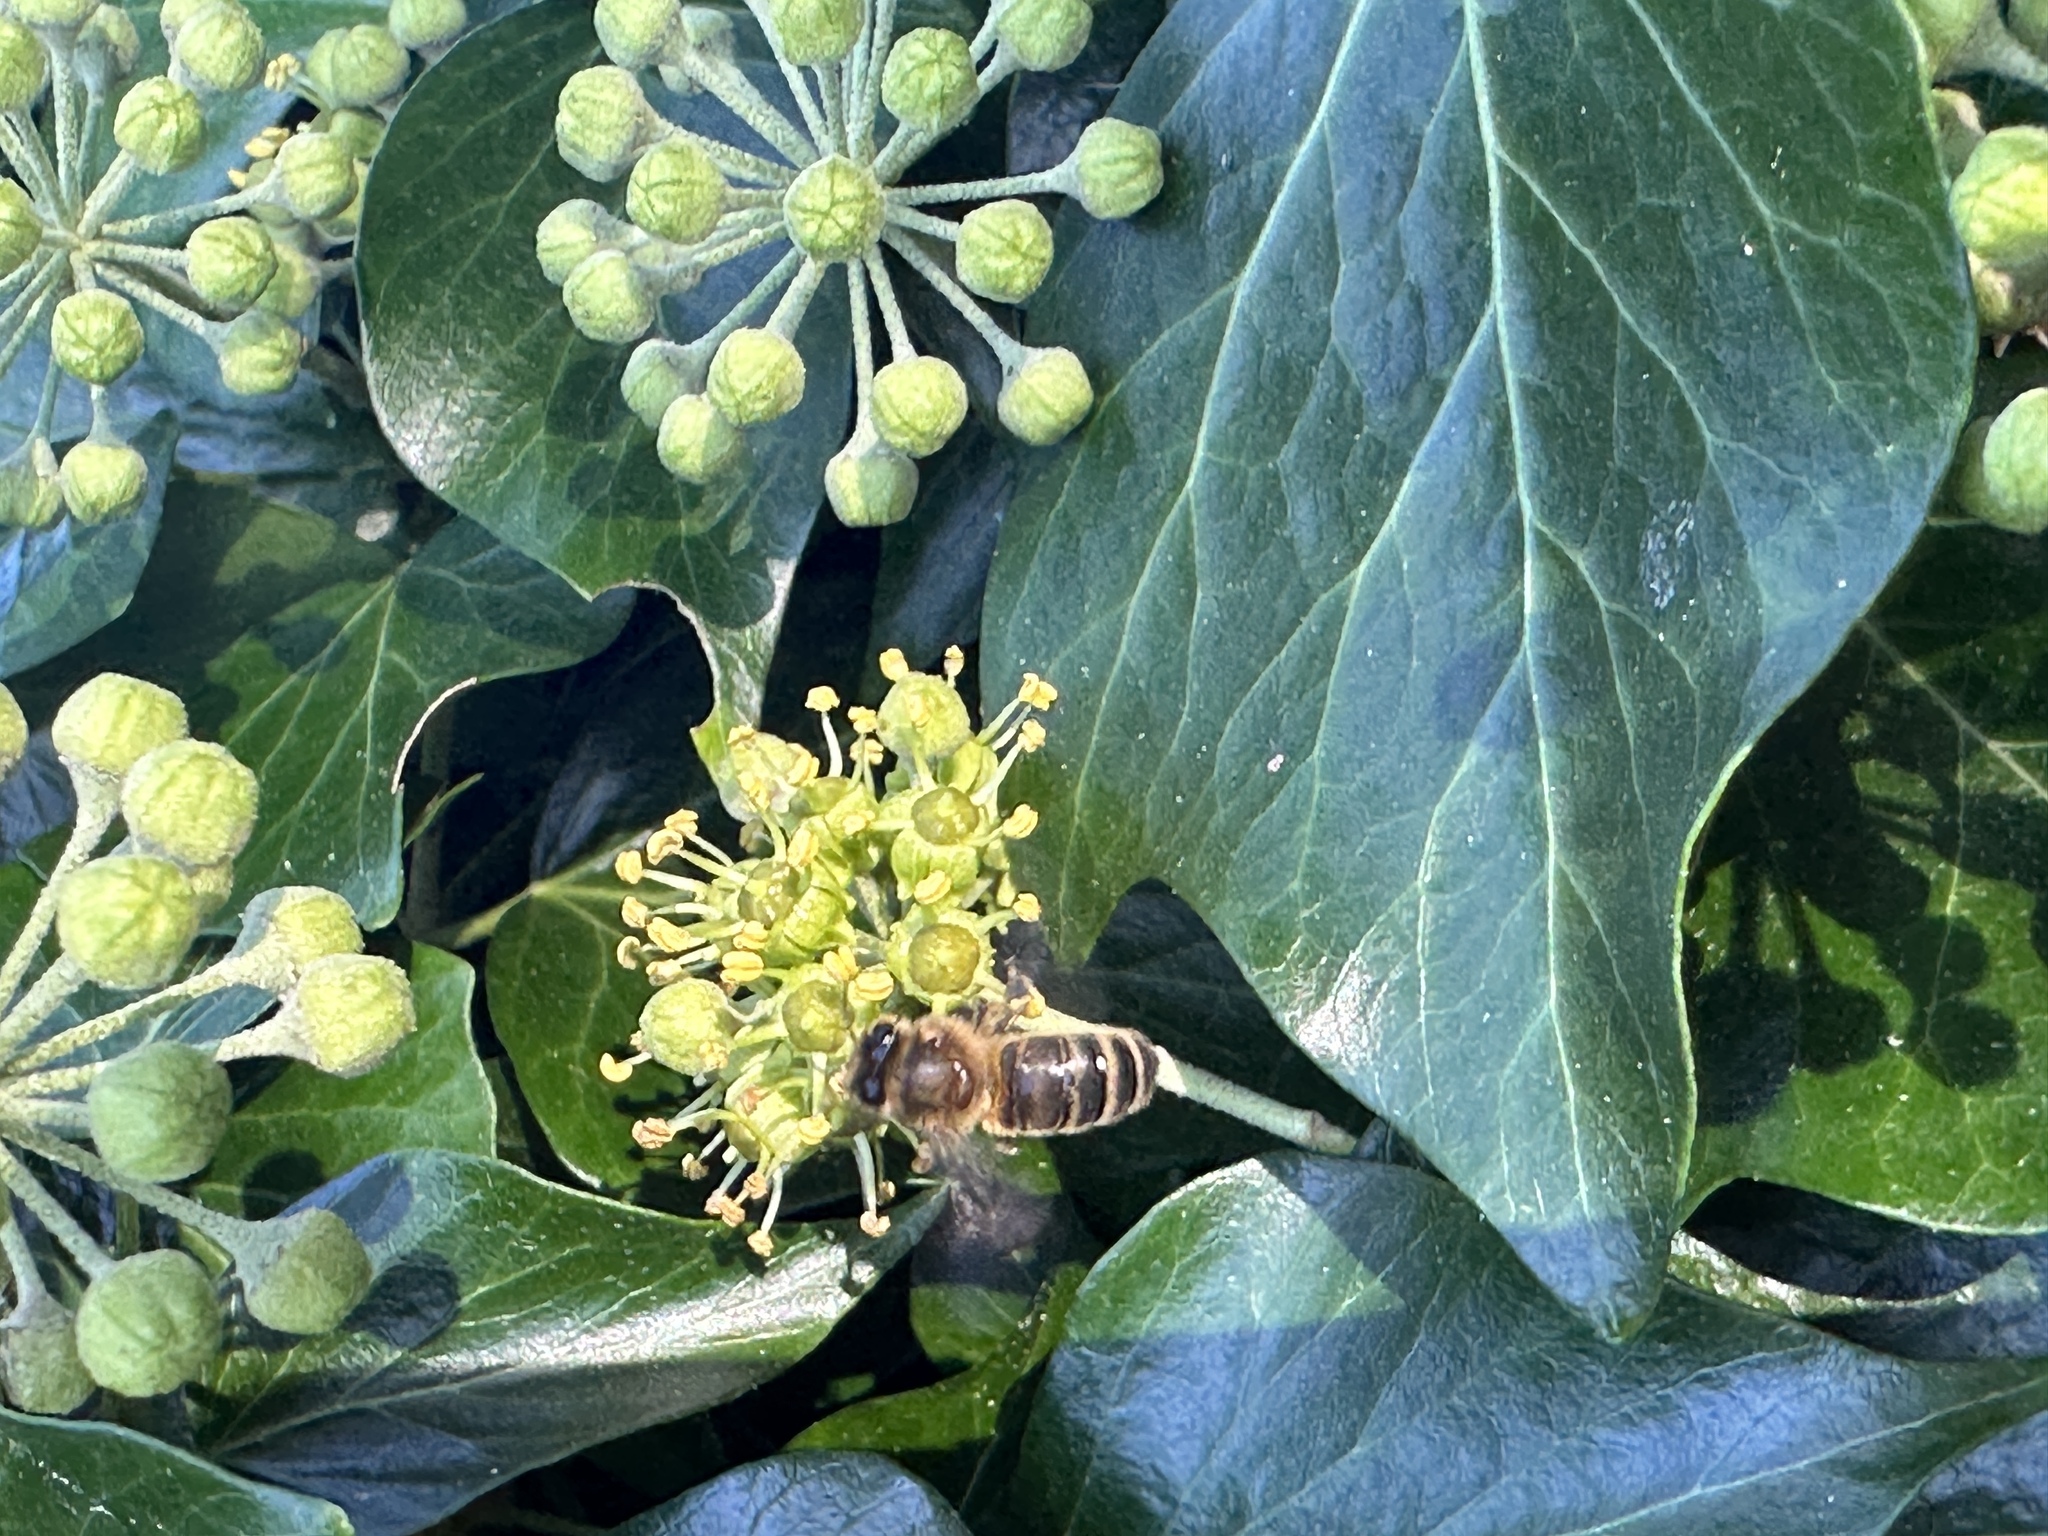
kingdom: Animalia
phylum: Arthropoda
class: Insecta
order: Hymenoptera
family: Apidae
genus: Apis
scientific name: Apis mellifera
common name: Honey bee
